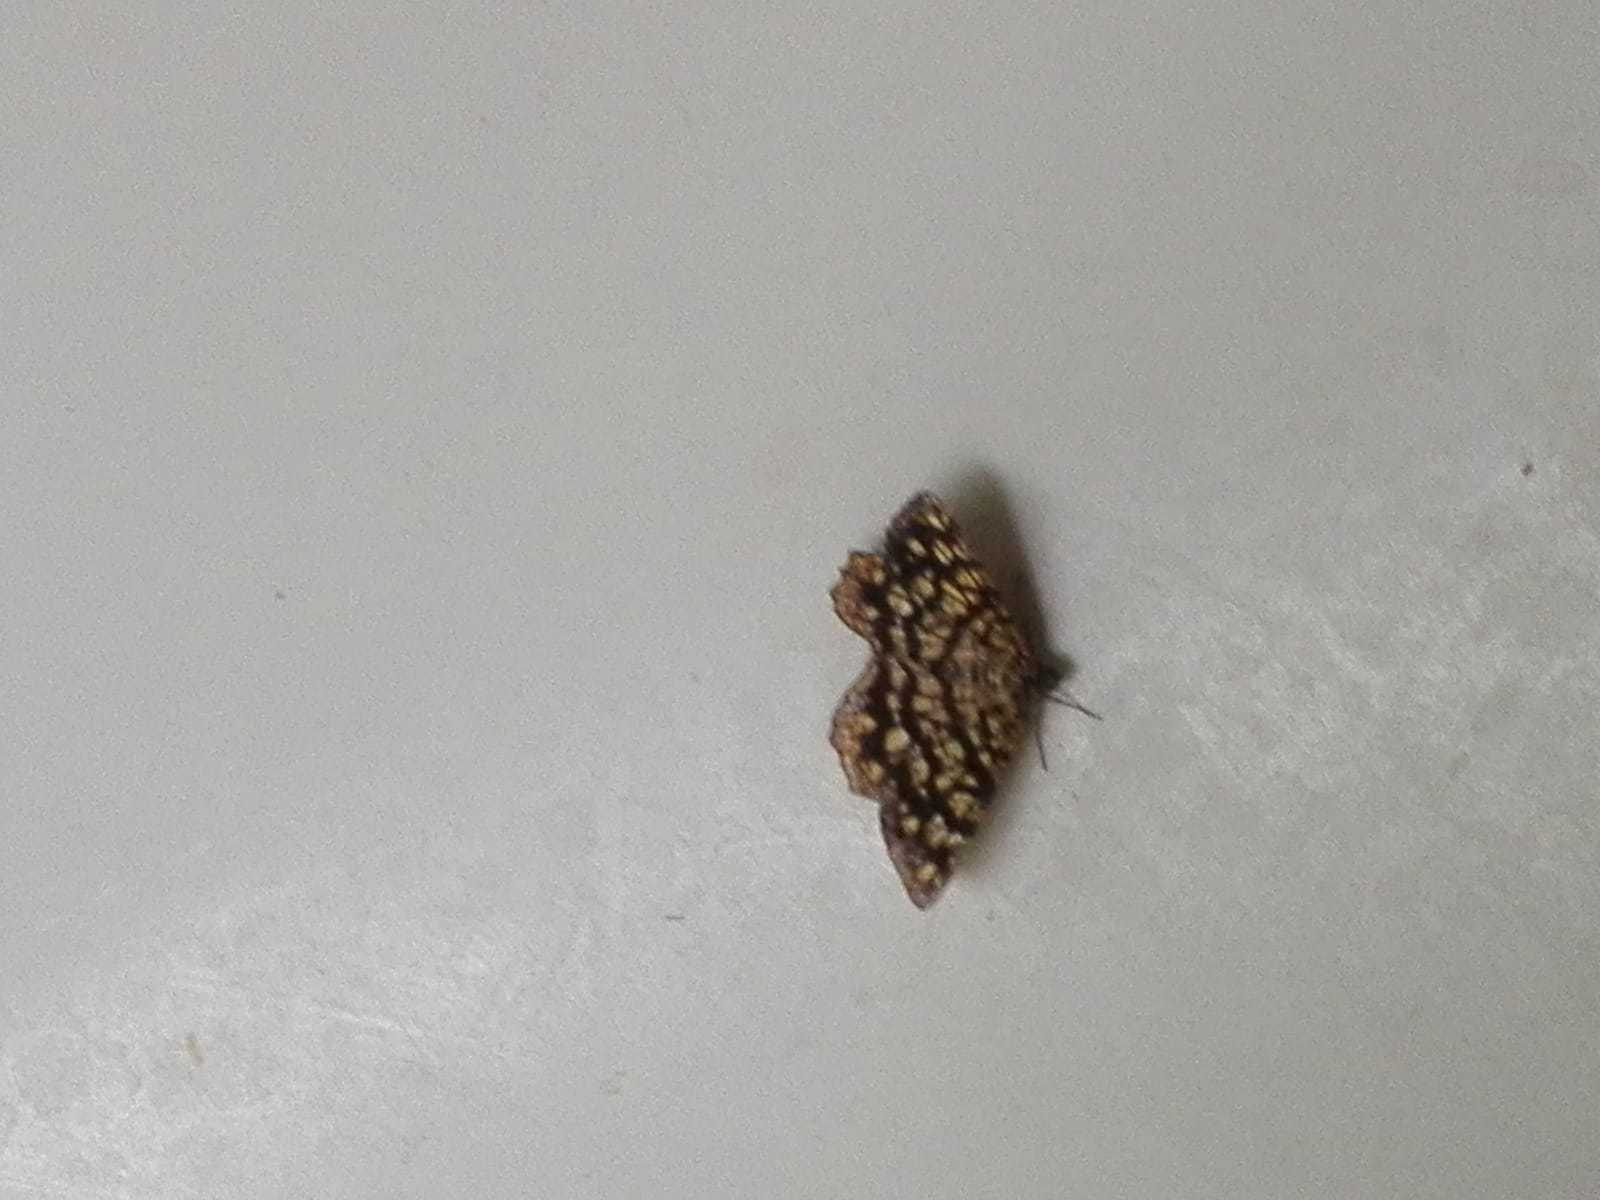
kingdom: Animalia
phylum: Arthropoda
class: Insecta
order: Lepidoptera
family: Geometridae
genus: Chiasmia
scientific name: Chiasmia clathrata
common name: Latticed heath
